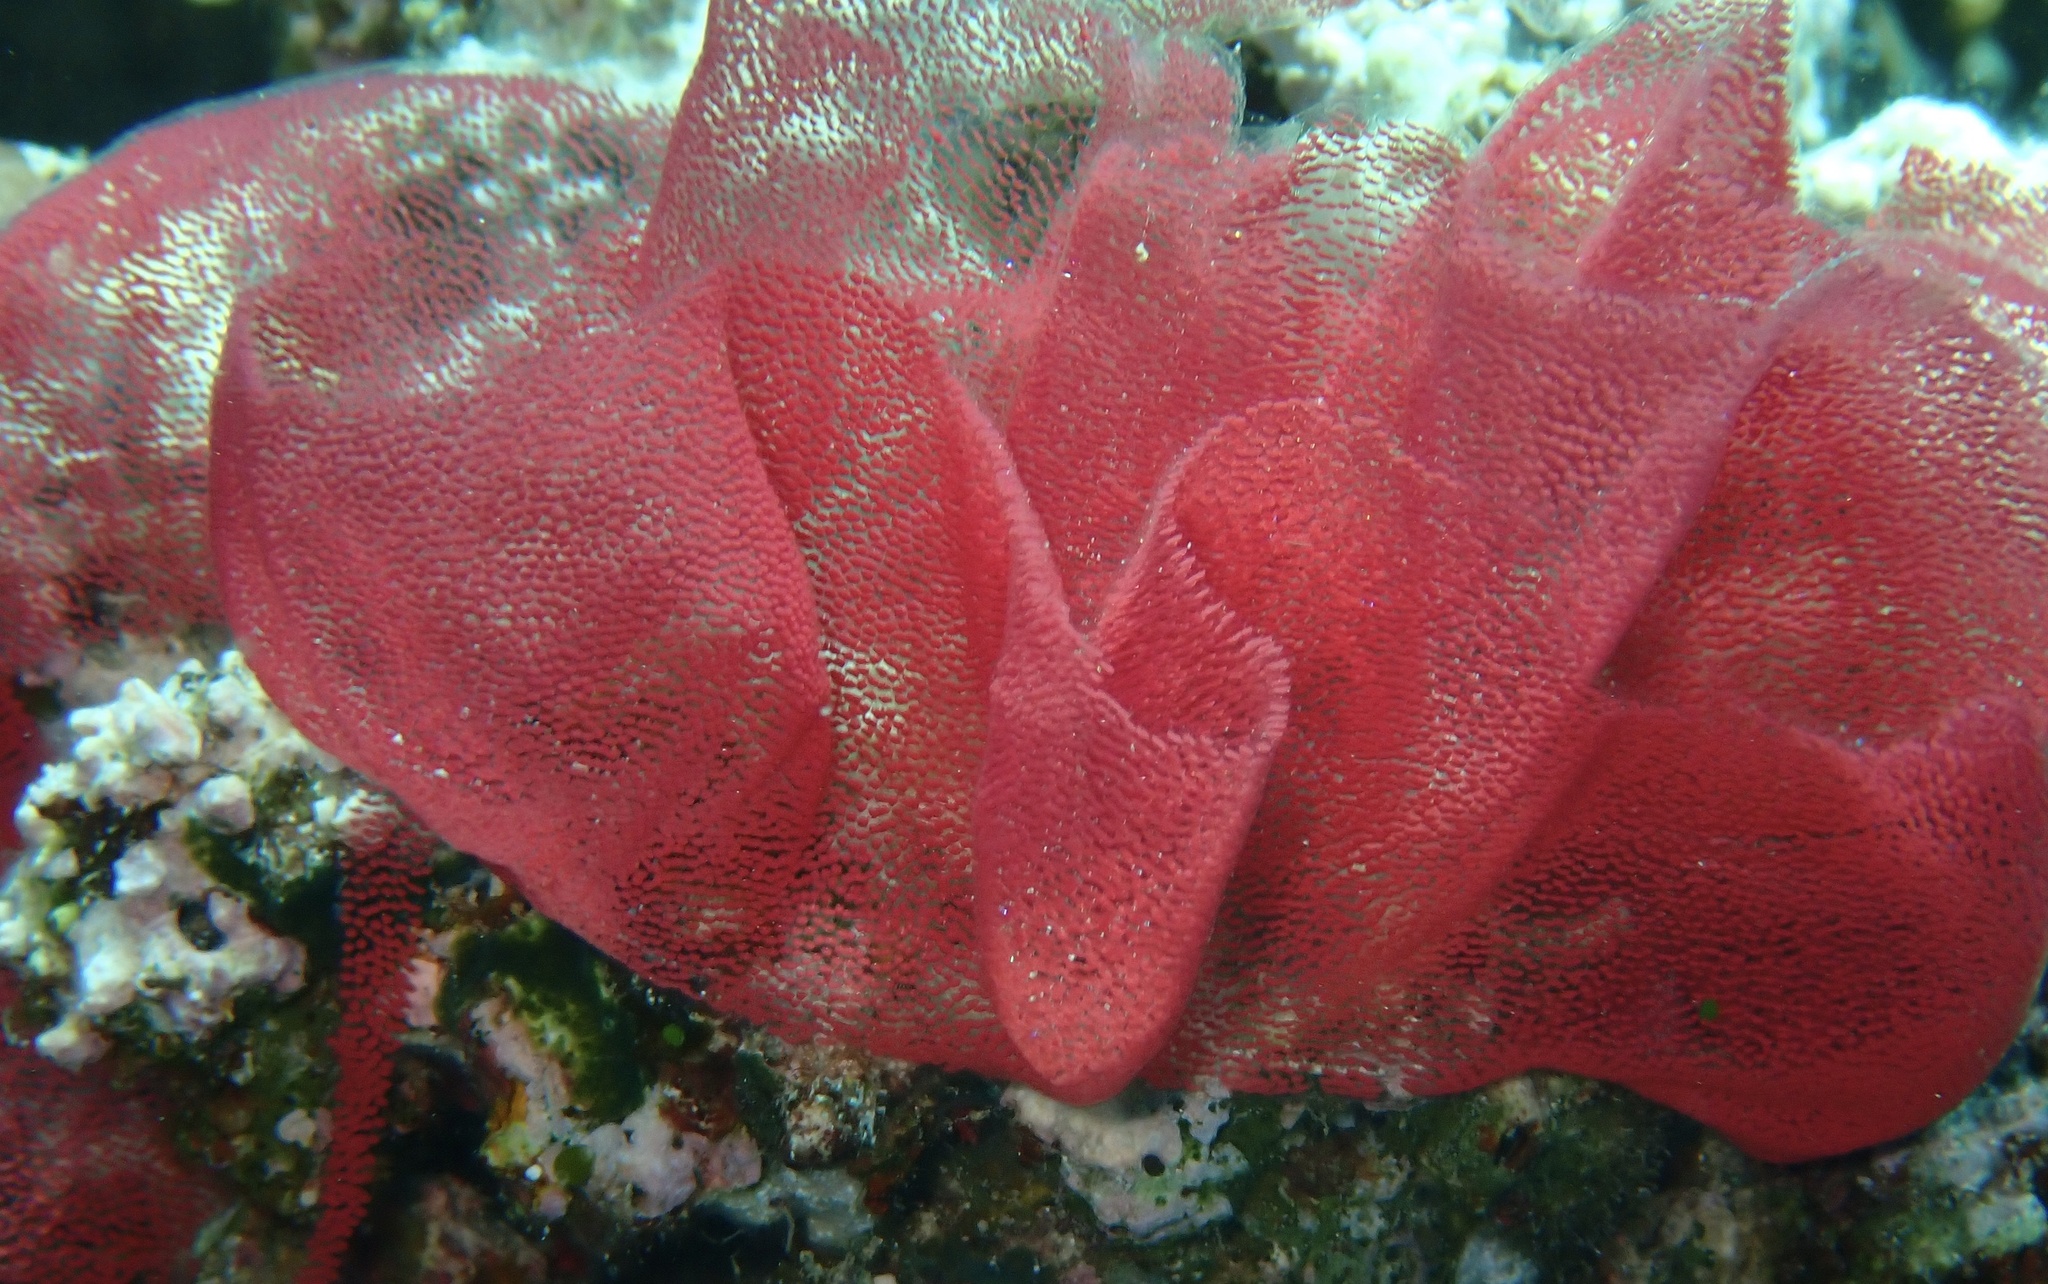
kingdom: Animalia
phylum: Mollusca
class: Gastropoda
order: Nudibranchia
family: Hexabranchidae
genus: Hexabranchus
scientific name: Hexabranchus lacer
